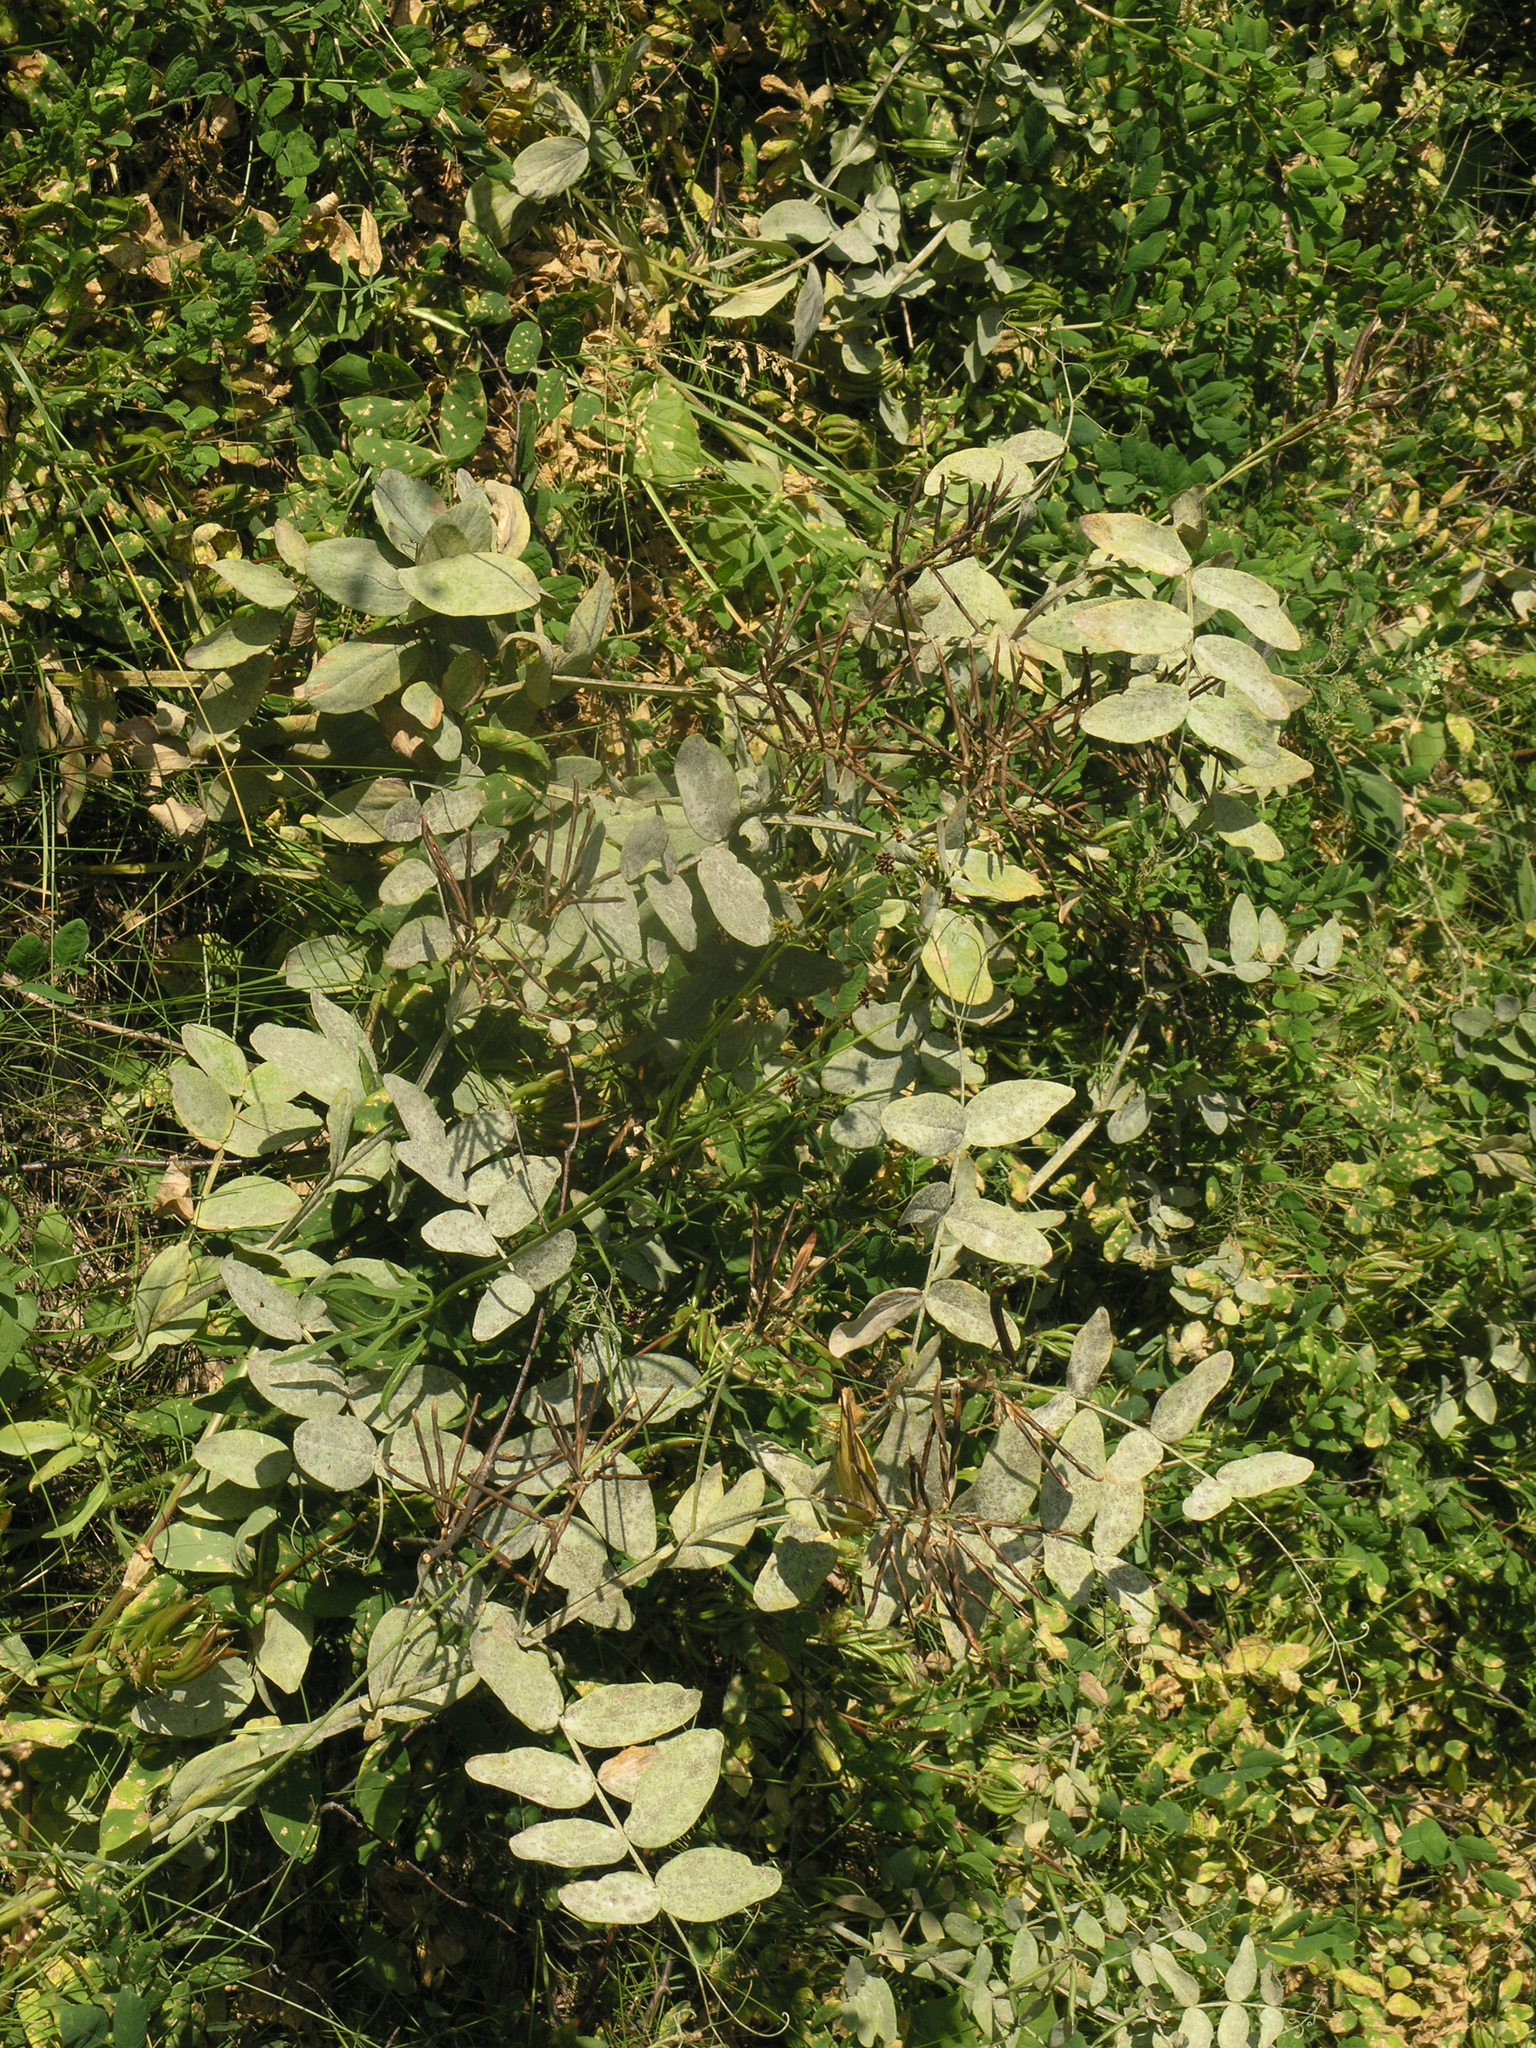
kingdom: Plantae
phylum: Tracheophyta
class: Magnoliopsida
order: Fabales
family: Fabaceae
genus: Lathyrus
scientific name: Lathyrus pisiformis
